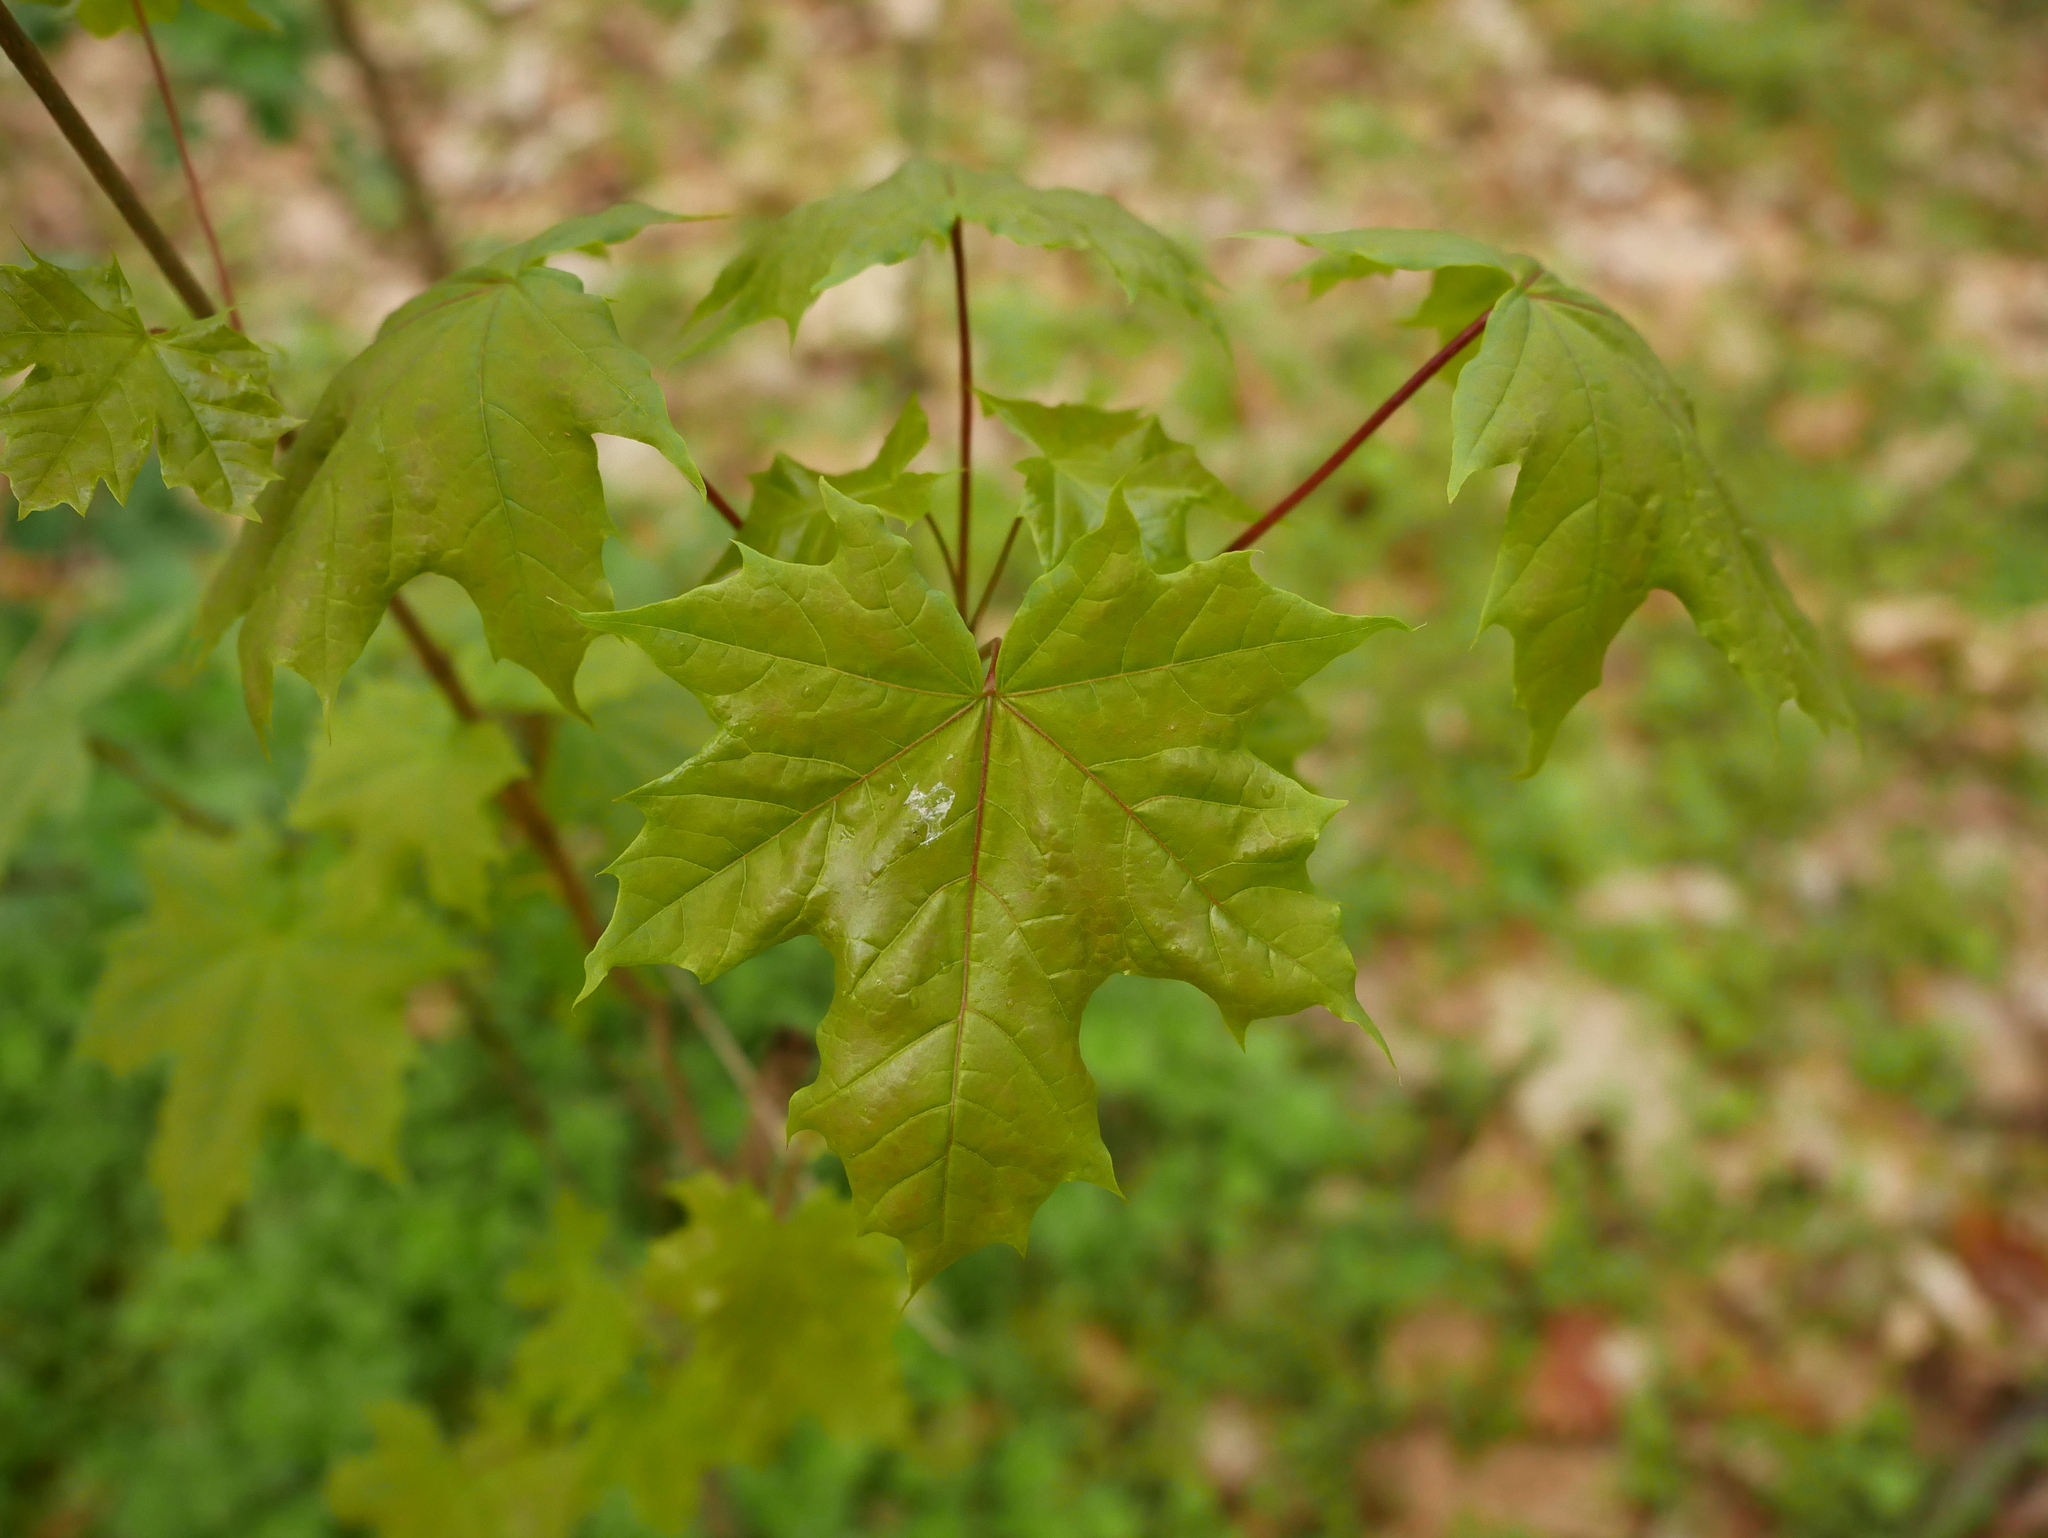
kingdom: Plantae
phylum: Tracheophyta
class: Magnoliopsida
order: Sapindales
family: Sapindaceae
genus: Acer
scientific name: Acer platanoides
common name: Norway maple
